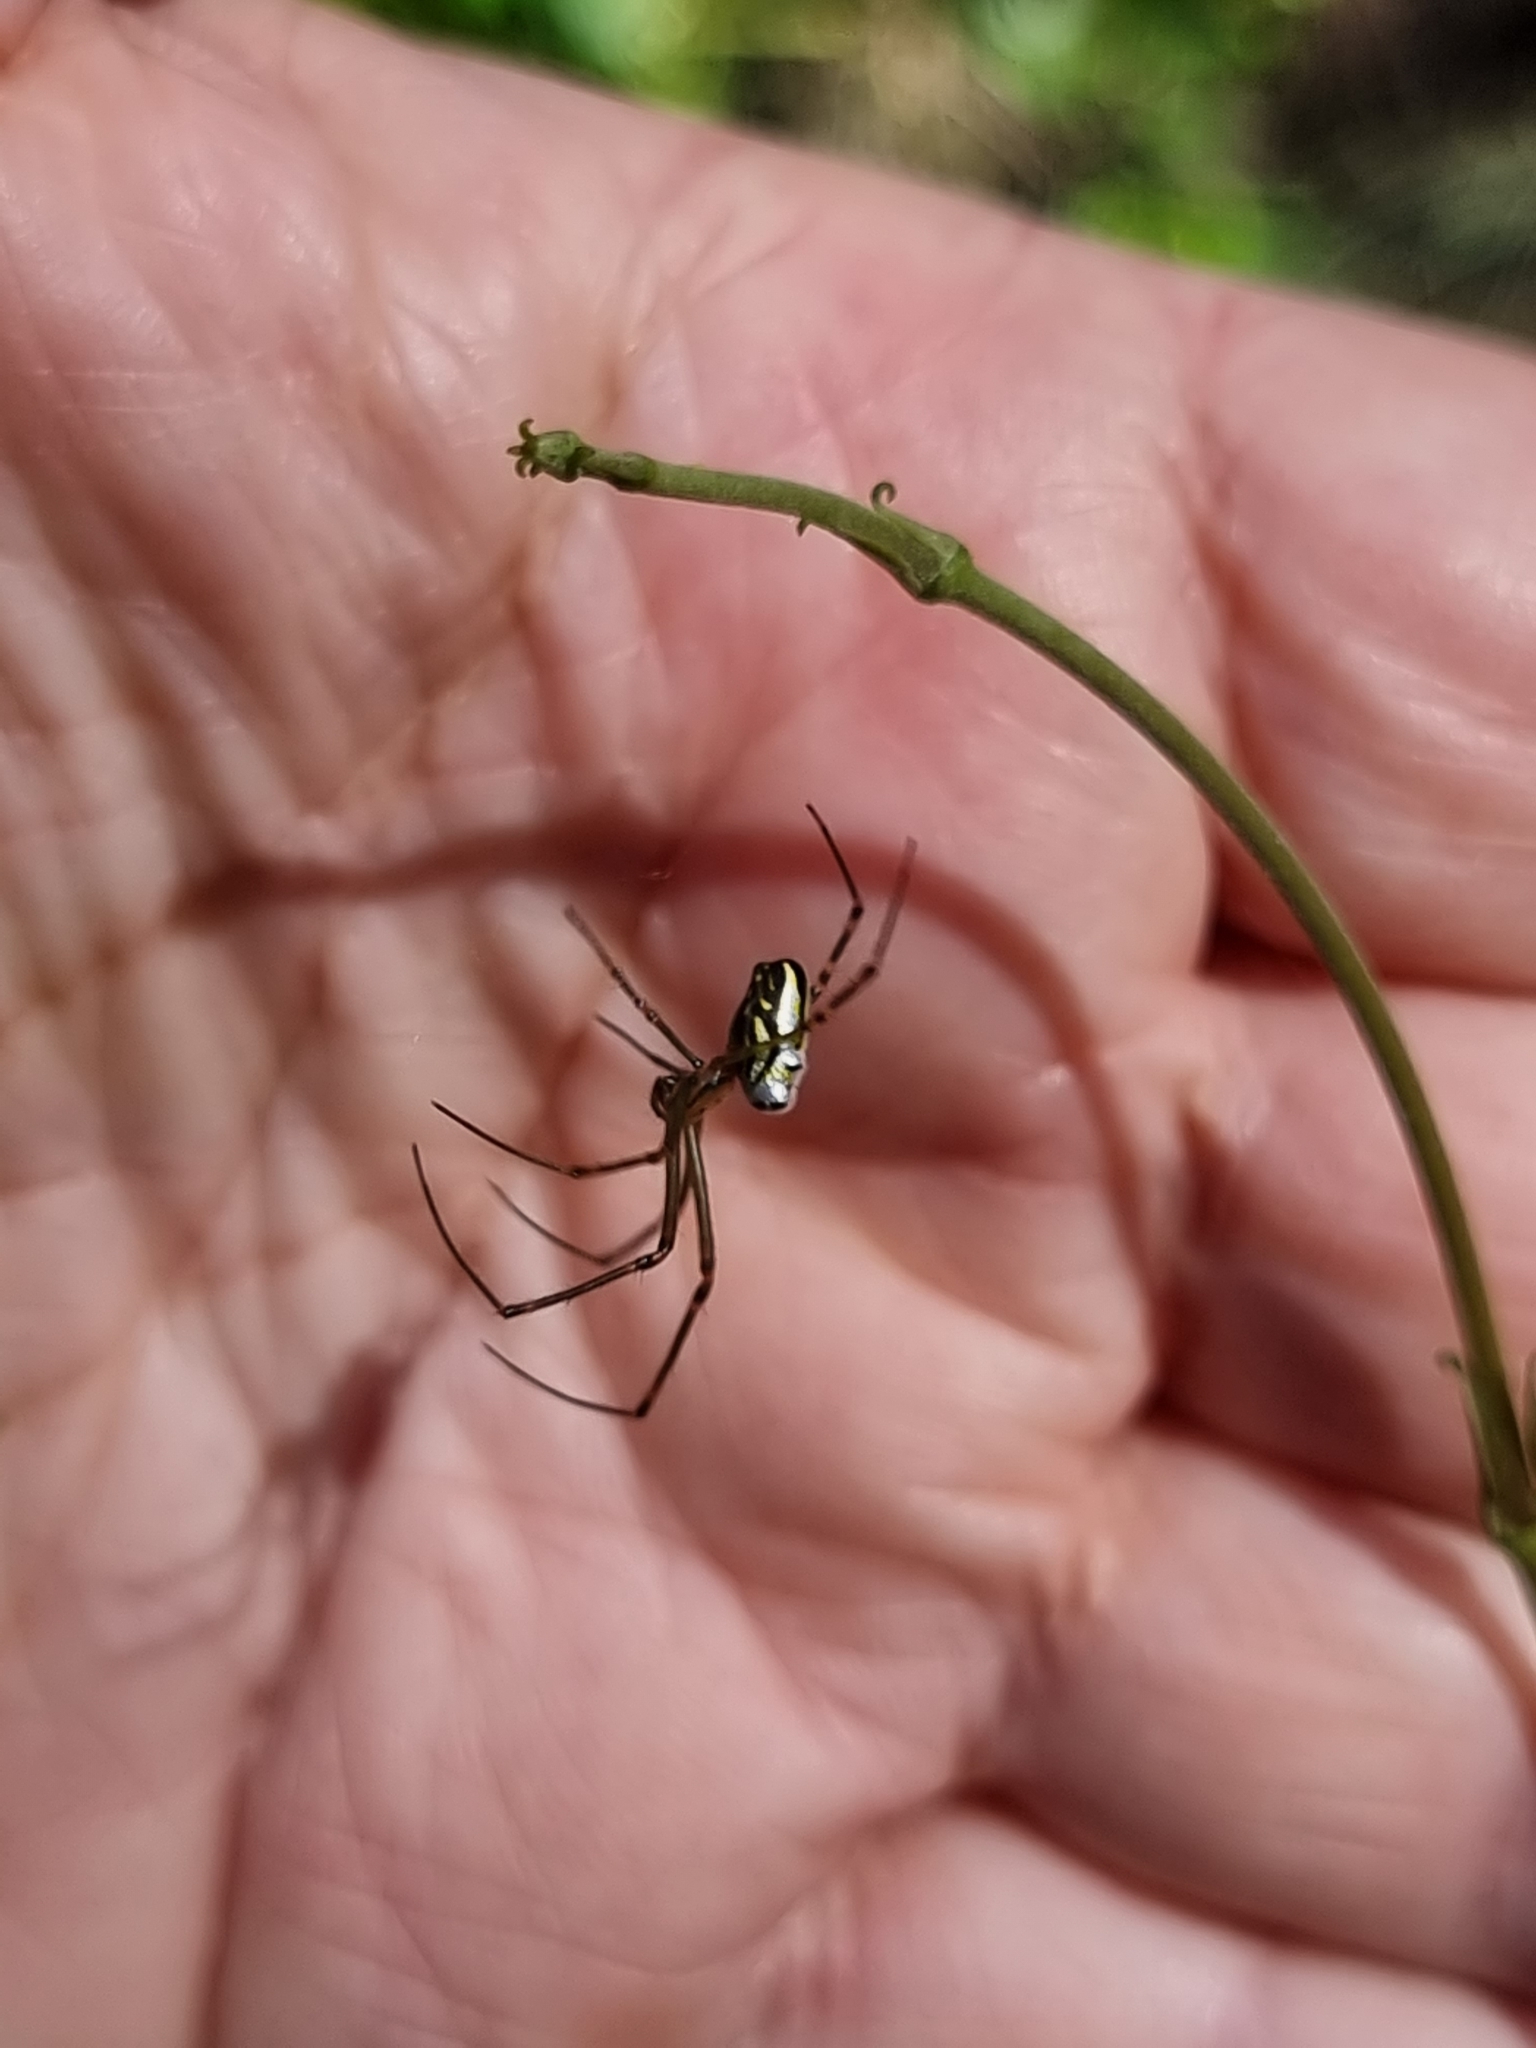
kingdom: Animalia
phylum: Arthropoda
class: Arachnida
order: Araneae
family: Tetragnathidae
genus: Leucauge
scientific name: Leucauge dromedaria
